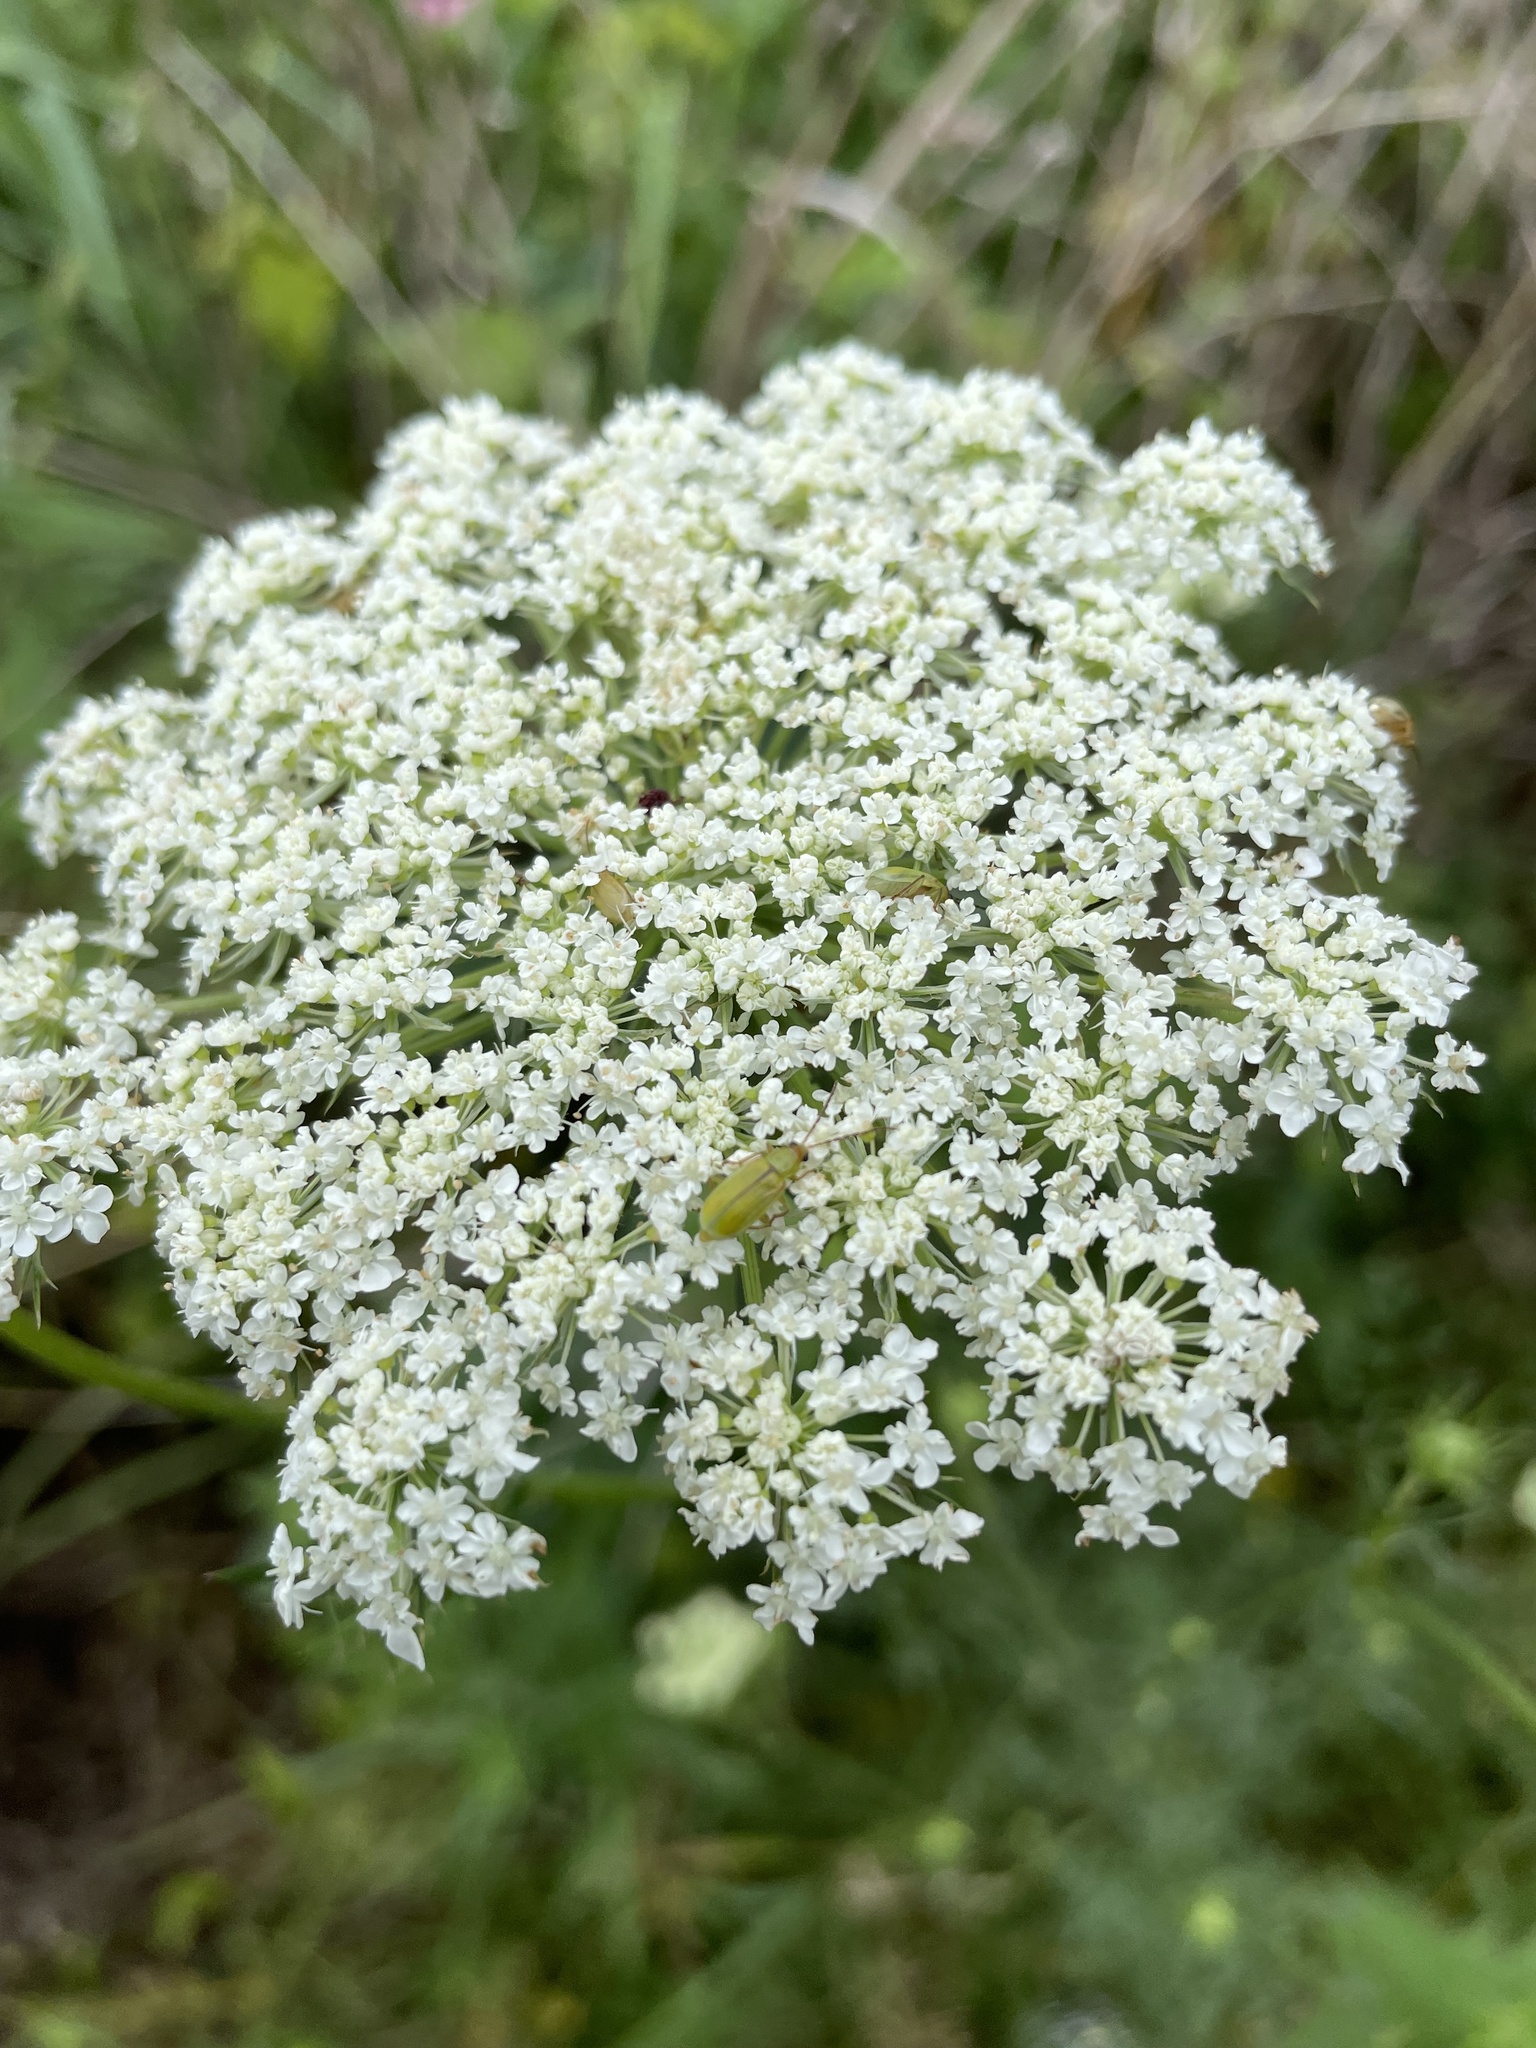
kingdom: Animalia
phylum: Arthropoda
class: Insecta
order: Coleoptera
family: Chrysomelidae
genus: Diabrotica
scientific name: Diabrotica barberi
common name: Northern corn rootworm
